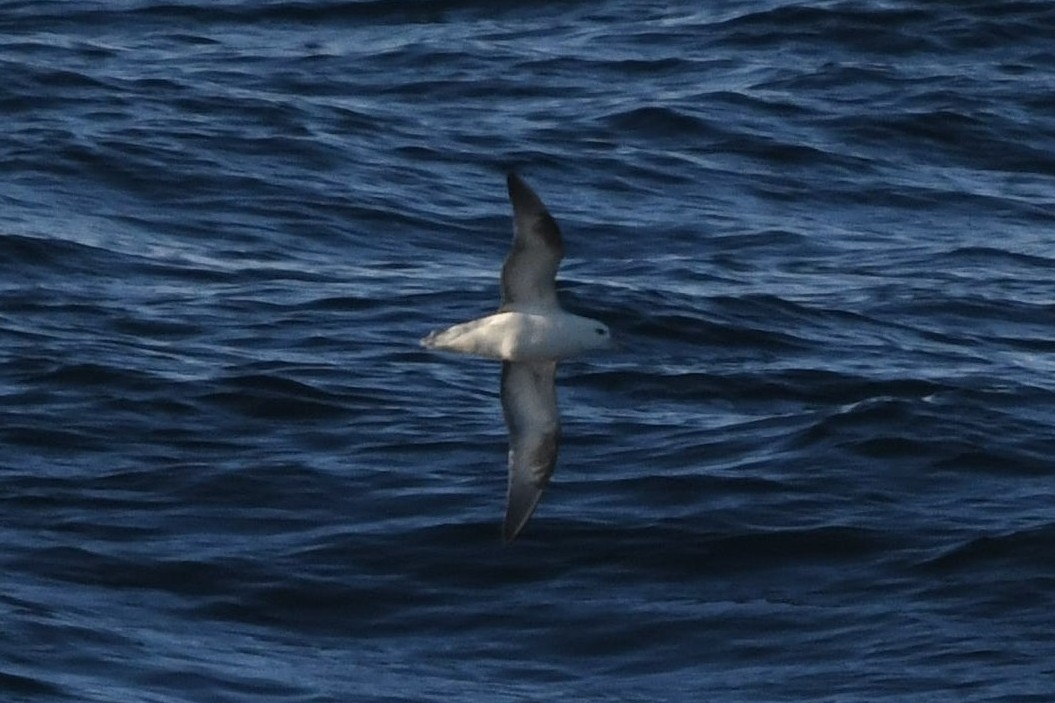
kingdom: Animalia
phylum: Chordata
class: Aves
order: Procellariiformes
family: Procellariidae
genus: Fulmarus
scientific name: Fulmarus glacialis
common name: Northern fulmar
